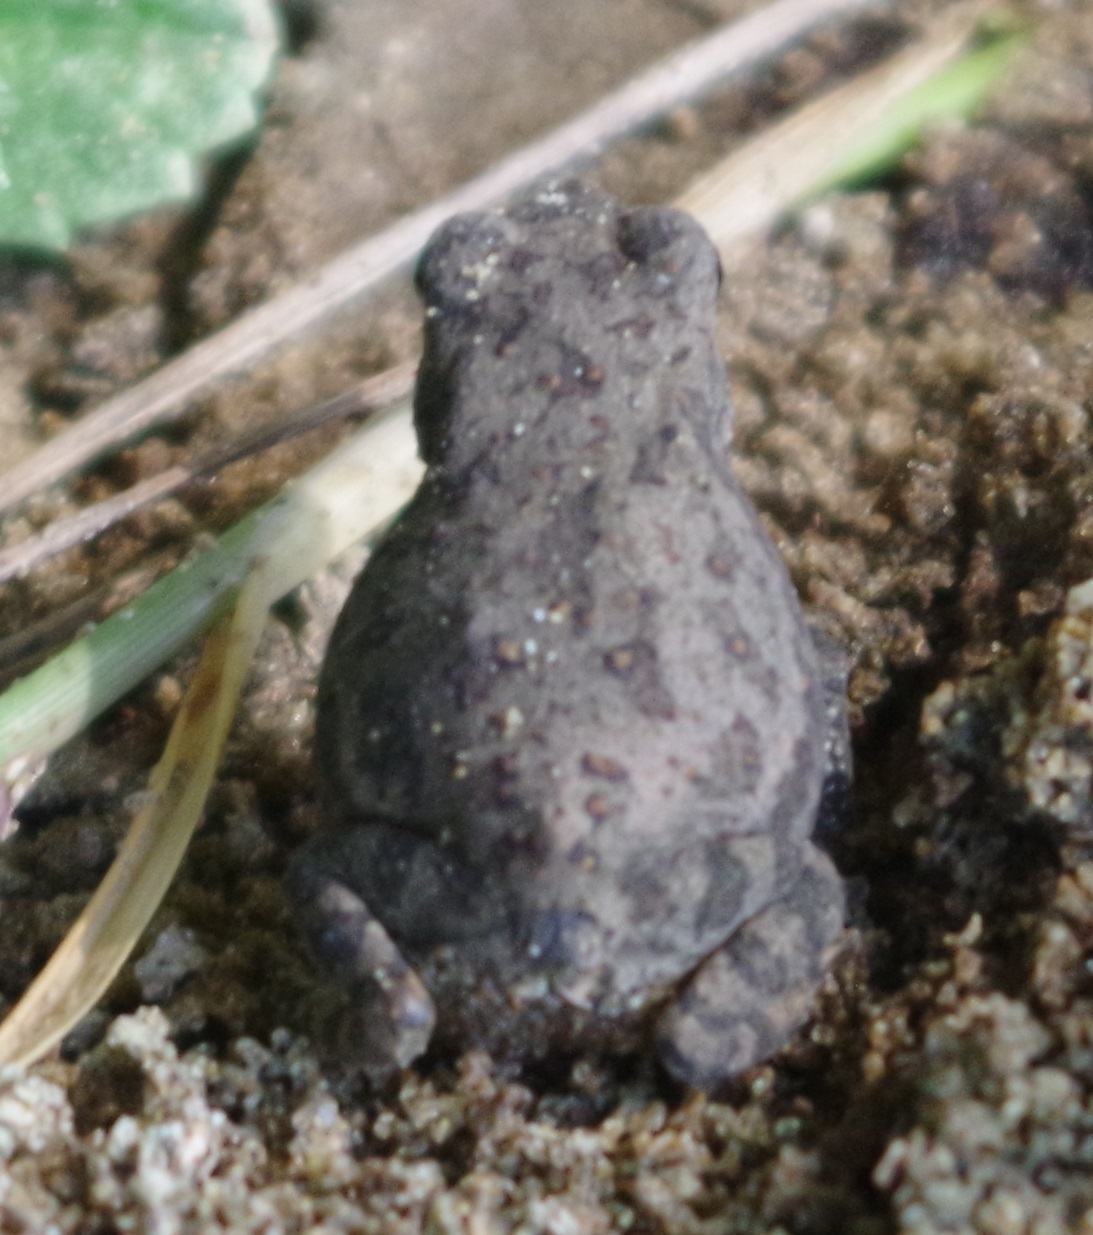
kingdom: Animalia
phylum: Chordata
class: Amphibia
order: Anura
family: Bufonidae
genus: Duttaphrynus
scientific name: Duttaphrynus melanostictus
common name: Common sunda toad
